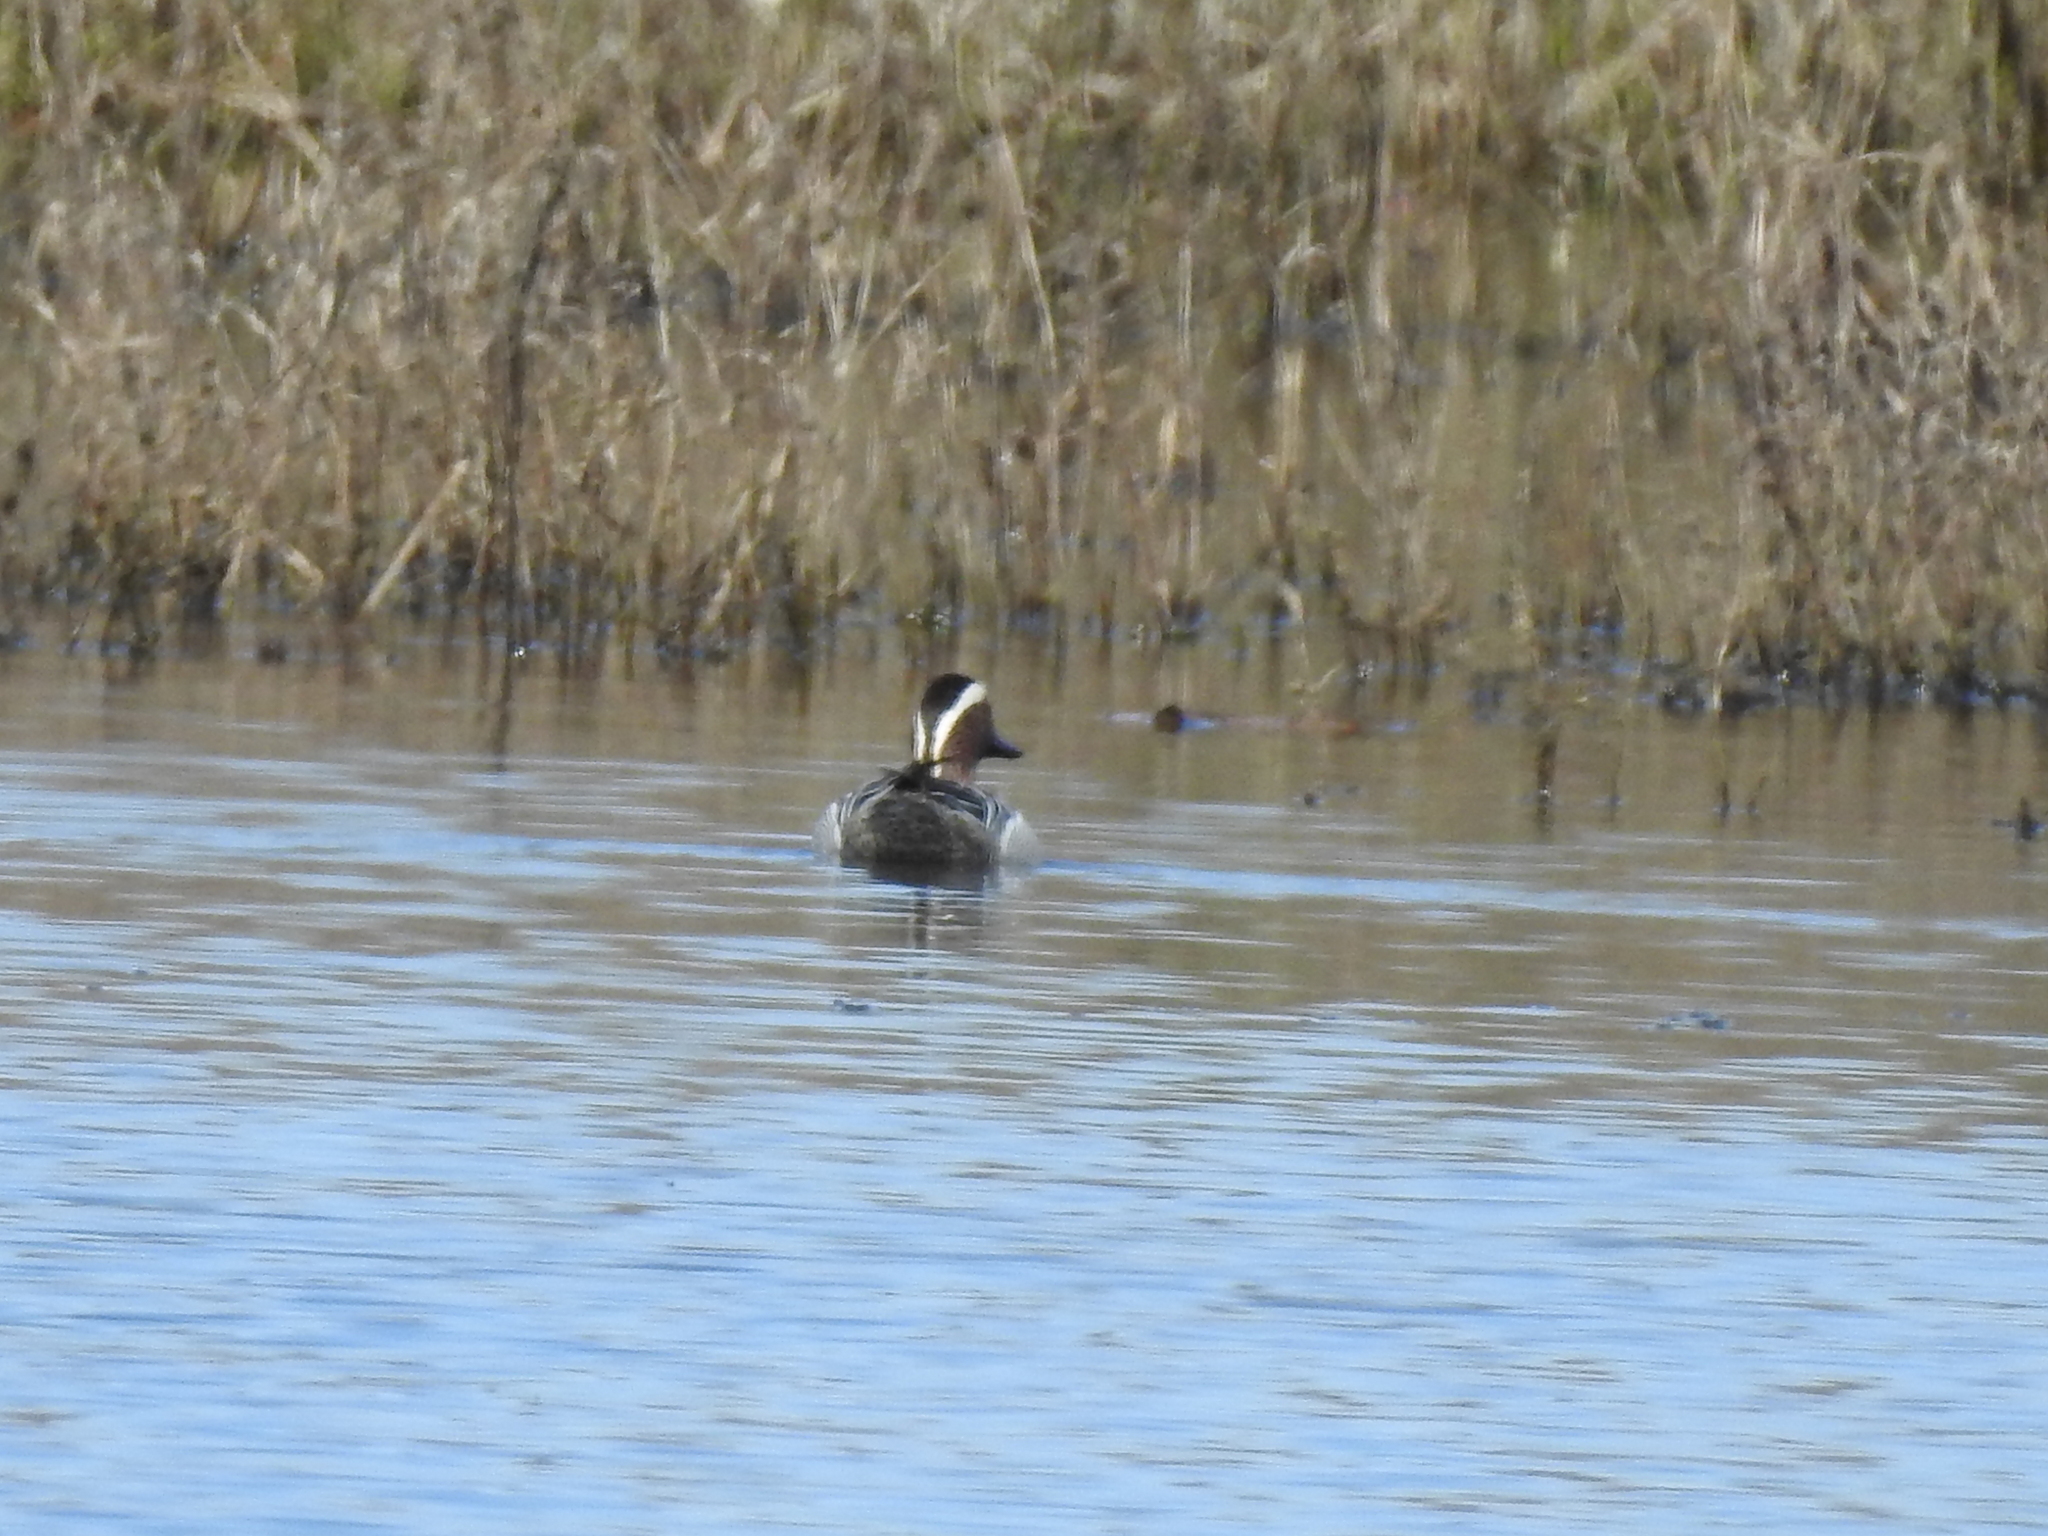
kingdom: Animalia
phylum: Chordata
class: Aves
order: Anseriformes
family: Anatidae
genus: Spatula
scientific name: Spatula querquedula
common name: Garganey
